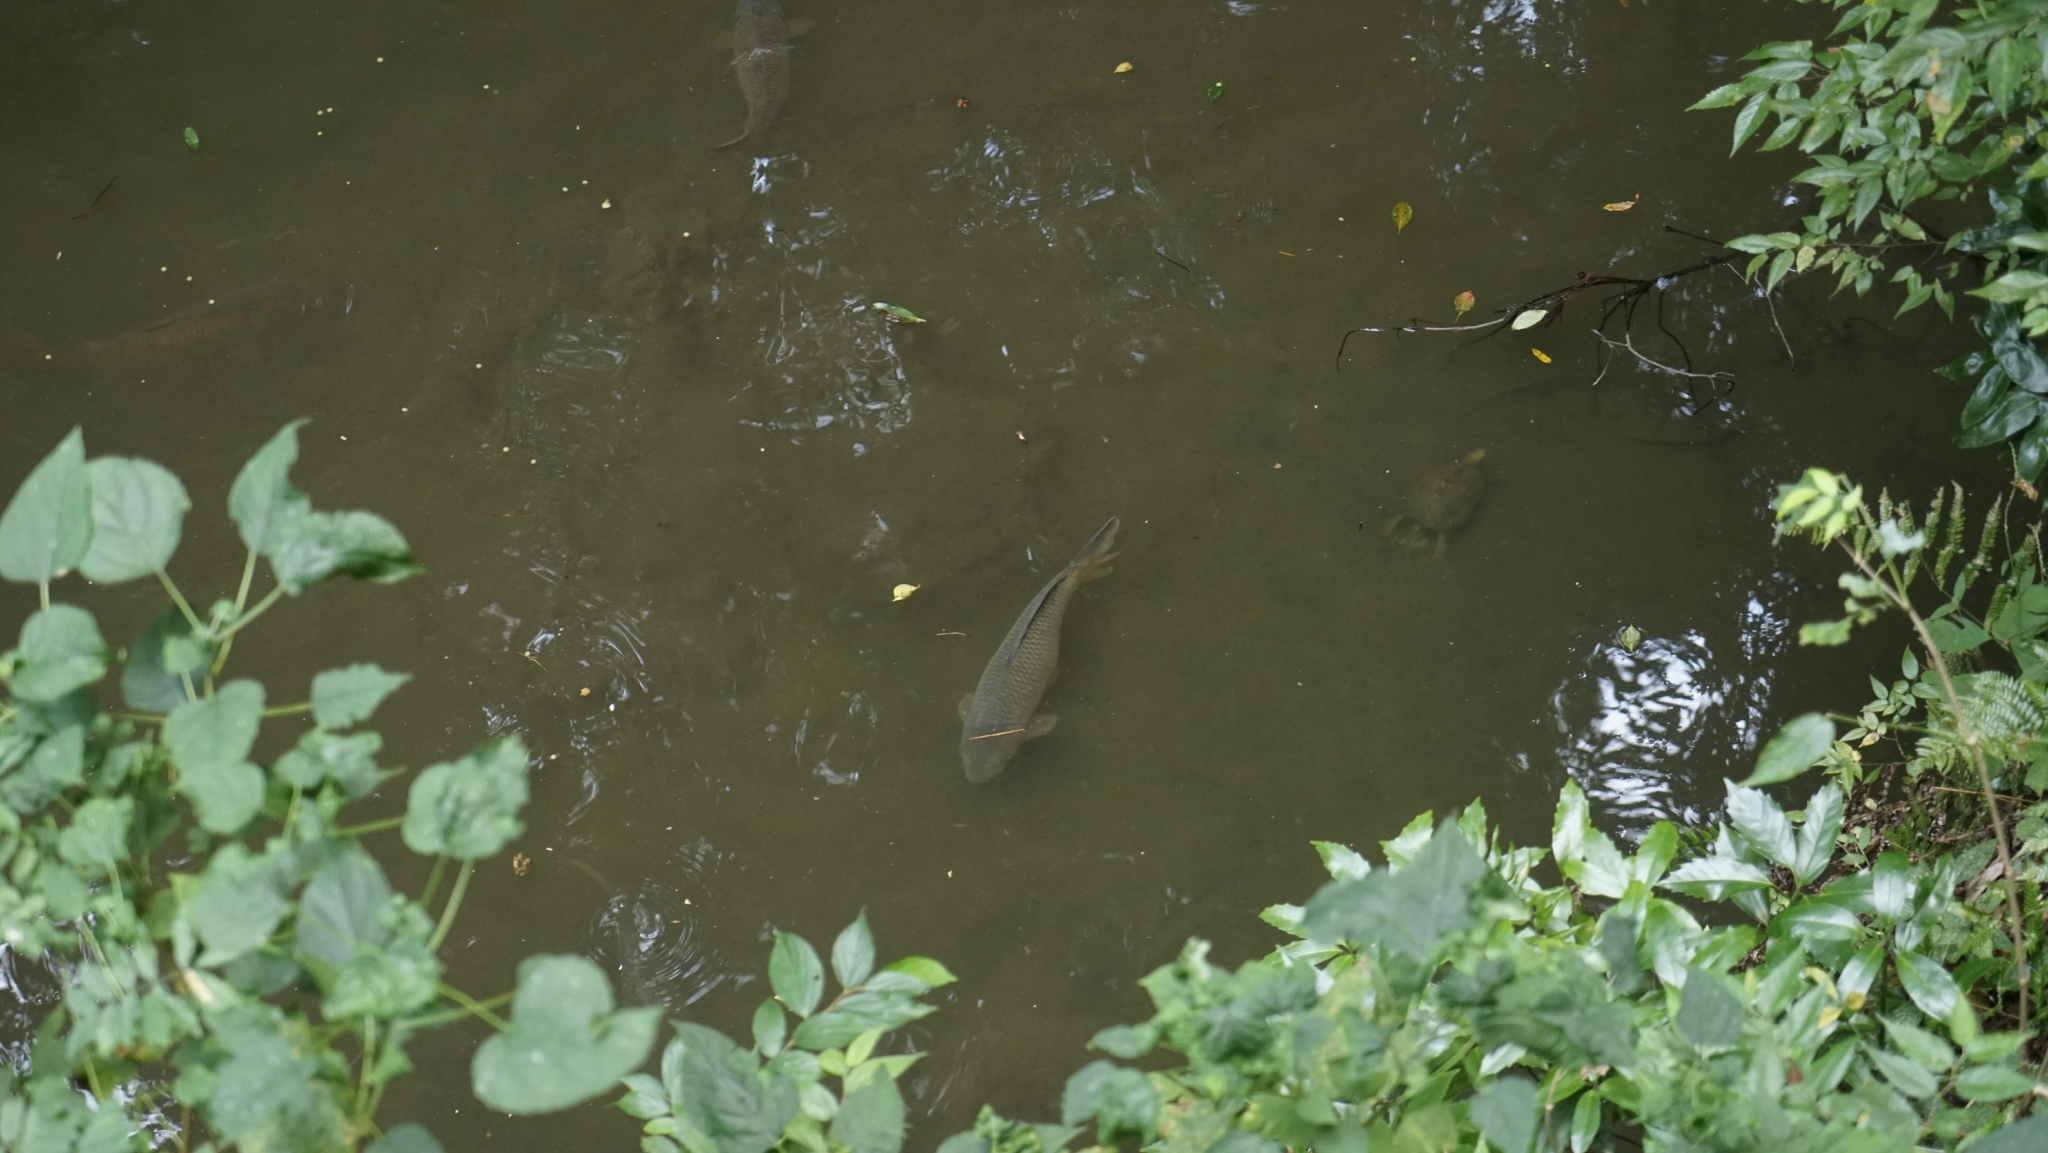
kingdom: Animalia
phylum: Chordata
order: Cypriniformes
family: Cyprinidae
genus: Cyprinus
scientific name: Cyprinus rubrofuscus
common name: Koi
